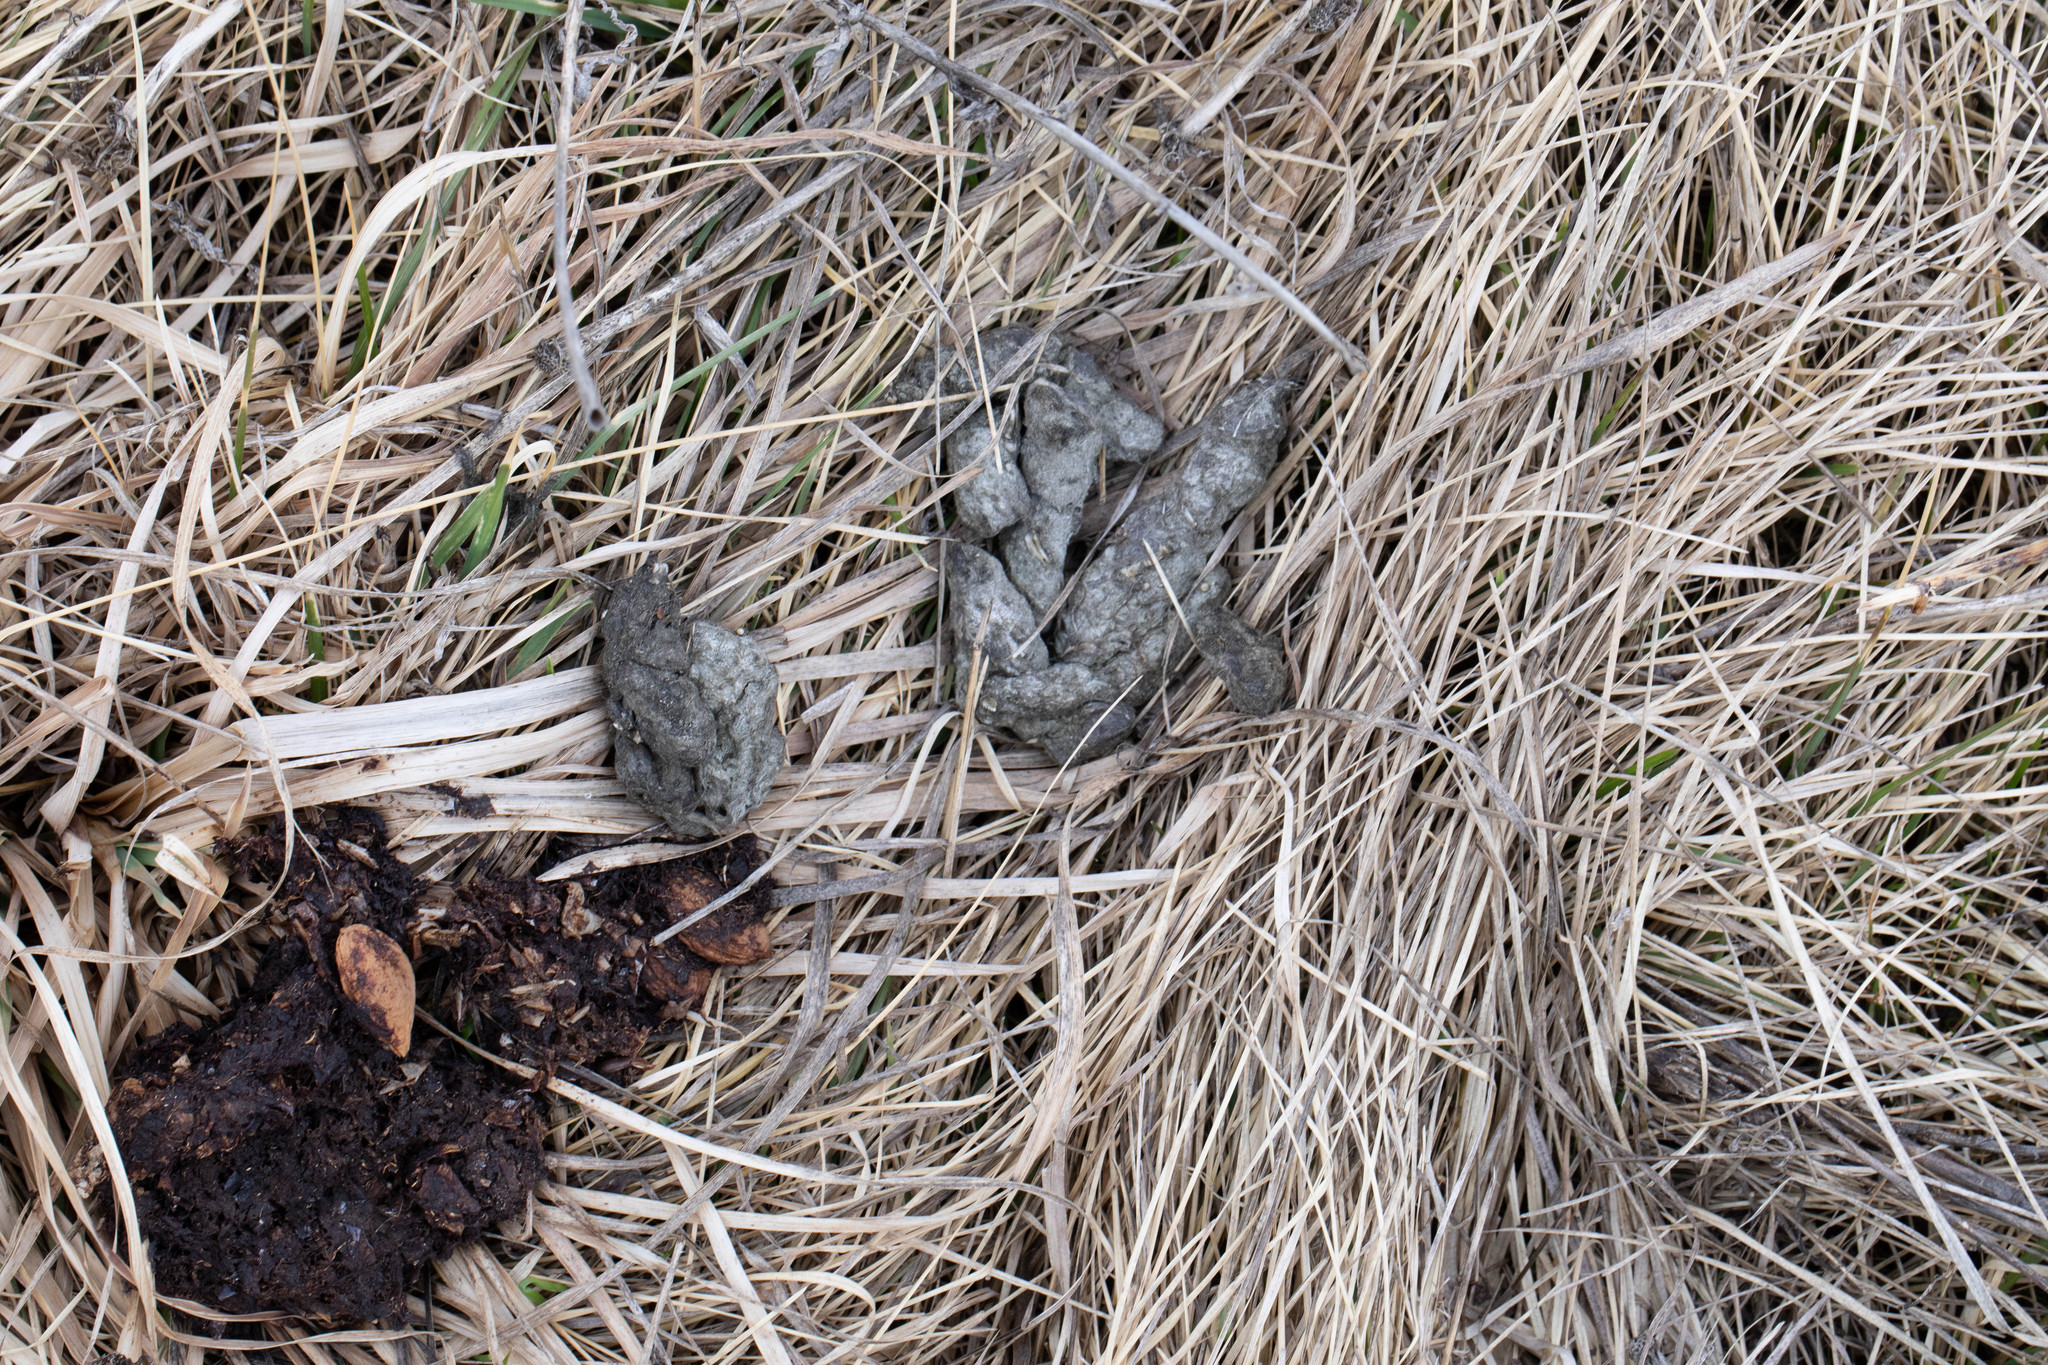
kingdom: Animalia
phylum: Chordata
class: Mammalia
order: Carnivora
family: Canidae
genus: Canis
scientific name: Canis latrans
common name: Coyote
